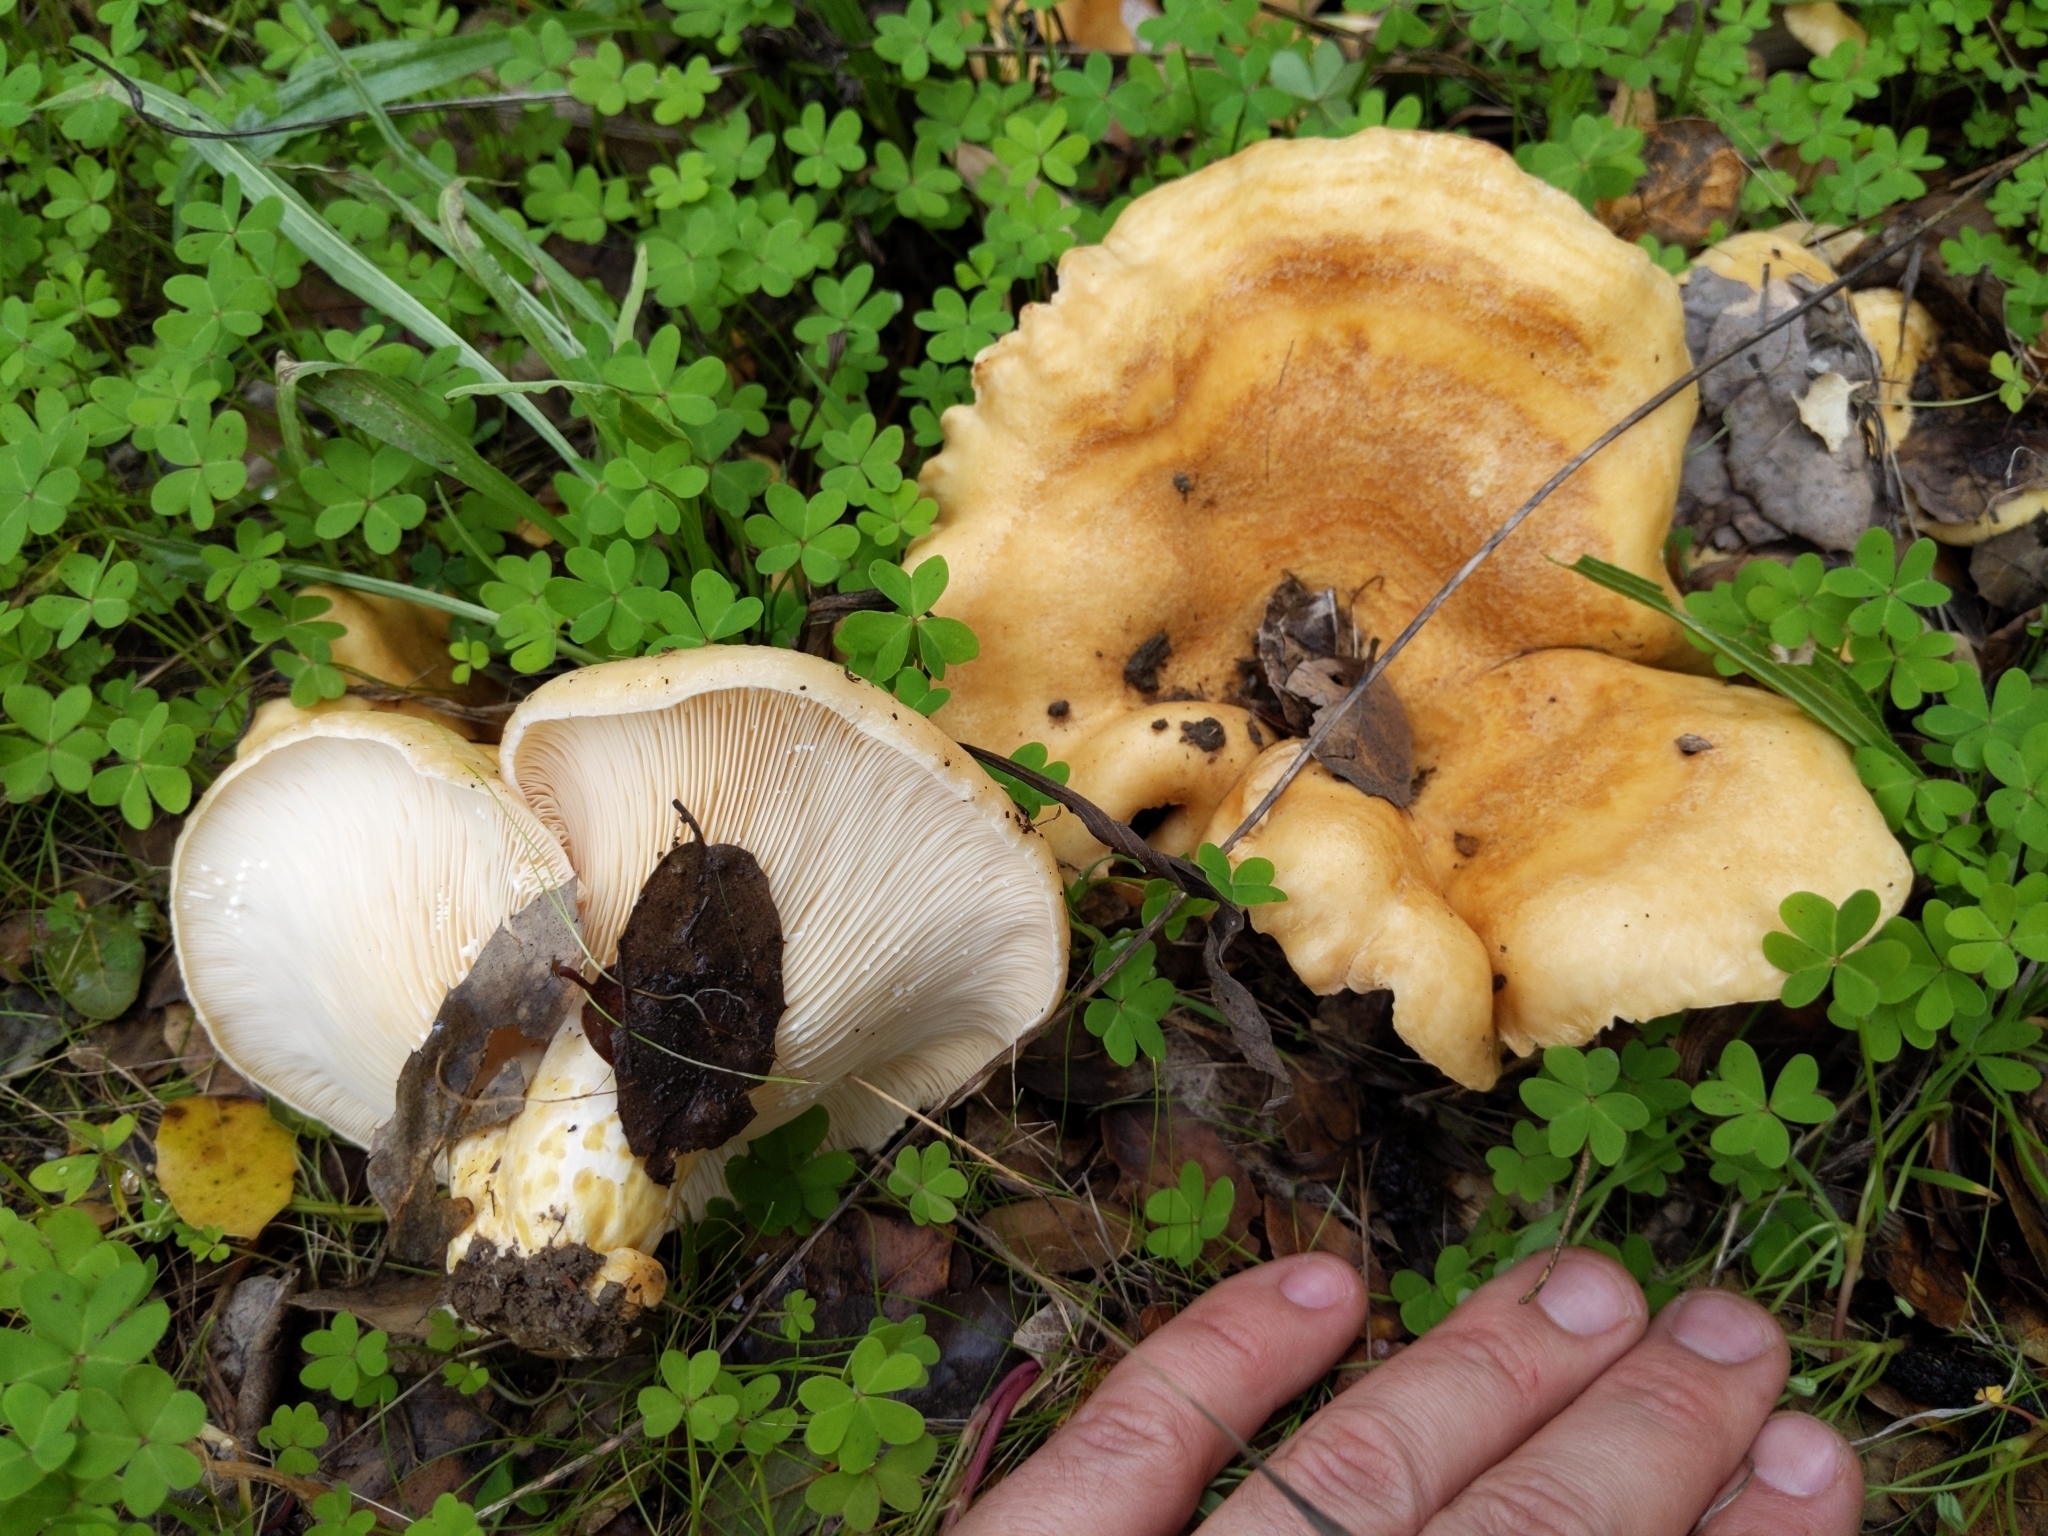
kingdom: Fungi
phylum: Basidiomycota
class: Agaricomycetes
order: Russulales
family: Russulaceae
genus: Lactarius
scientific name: Lactarius alnicola
